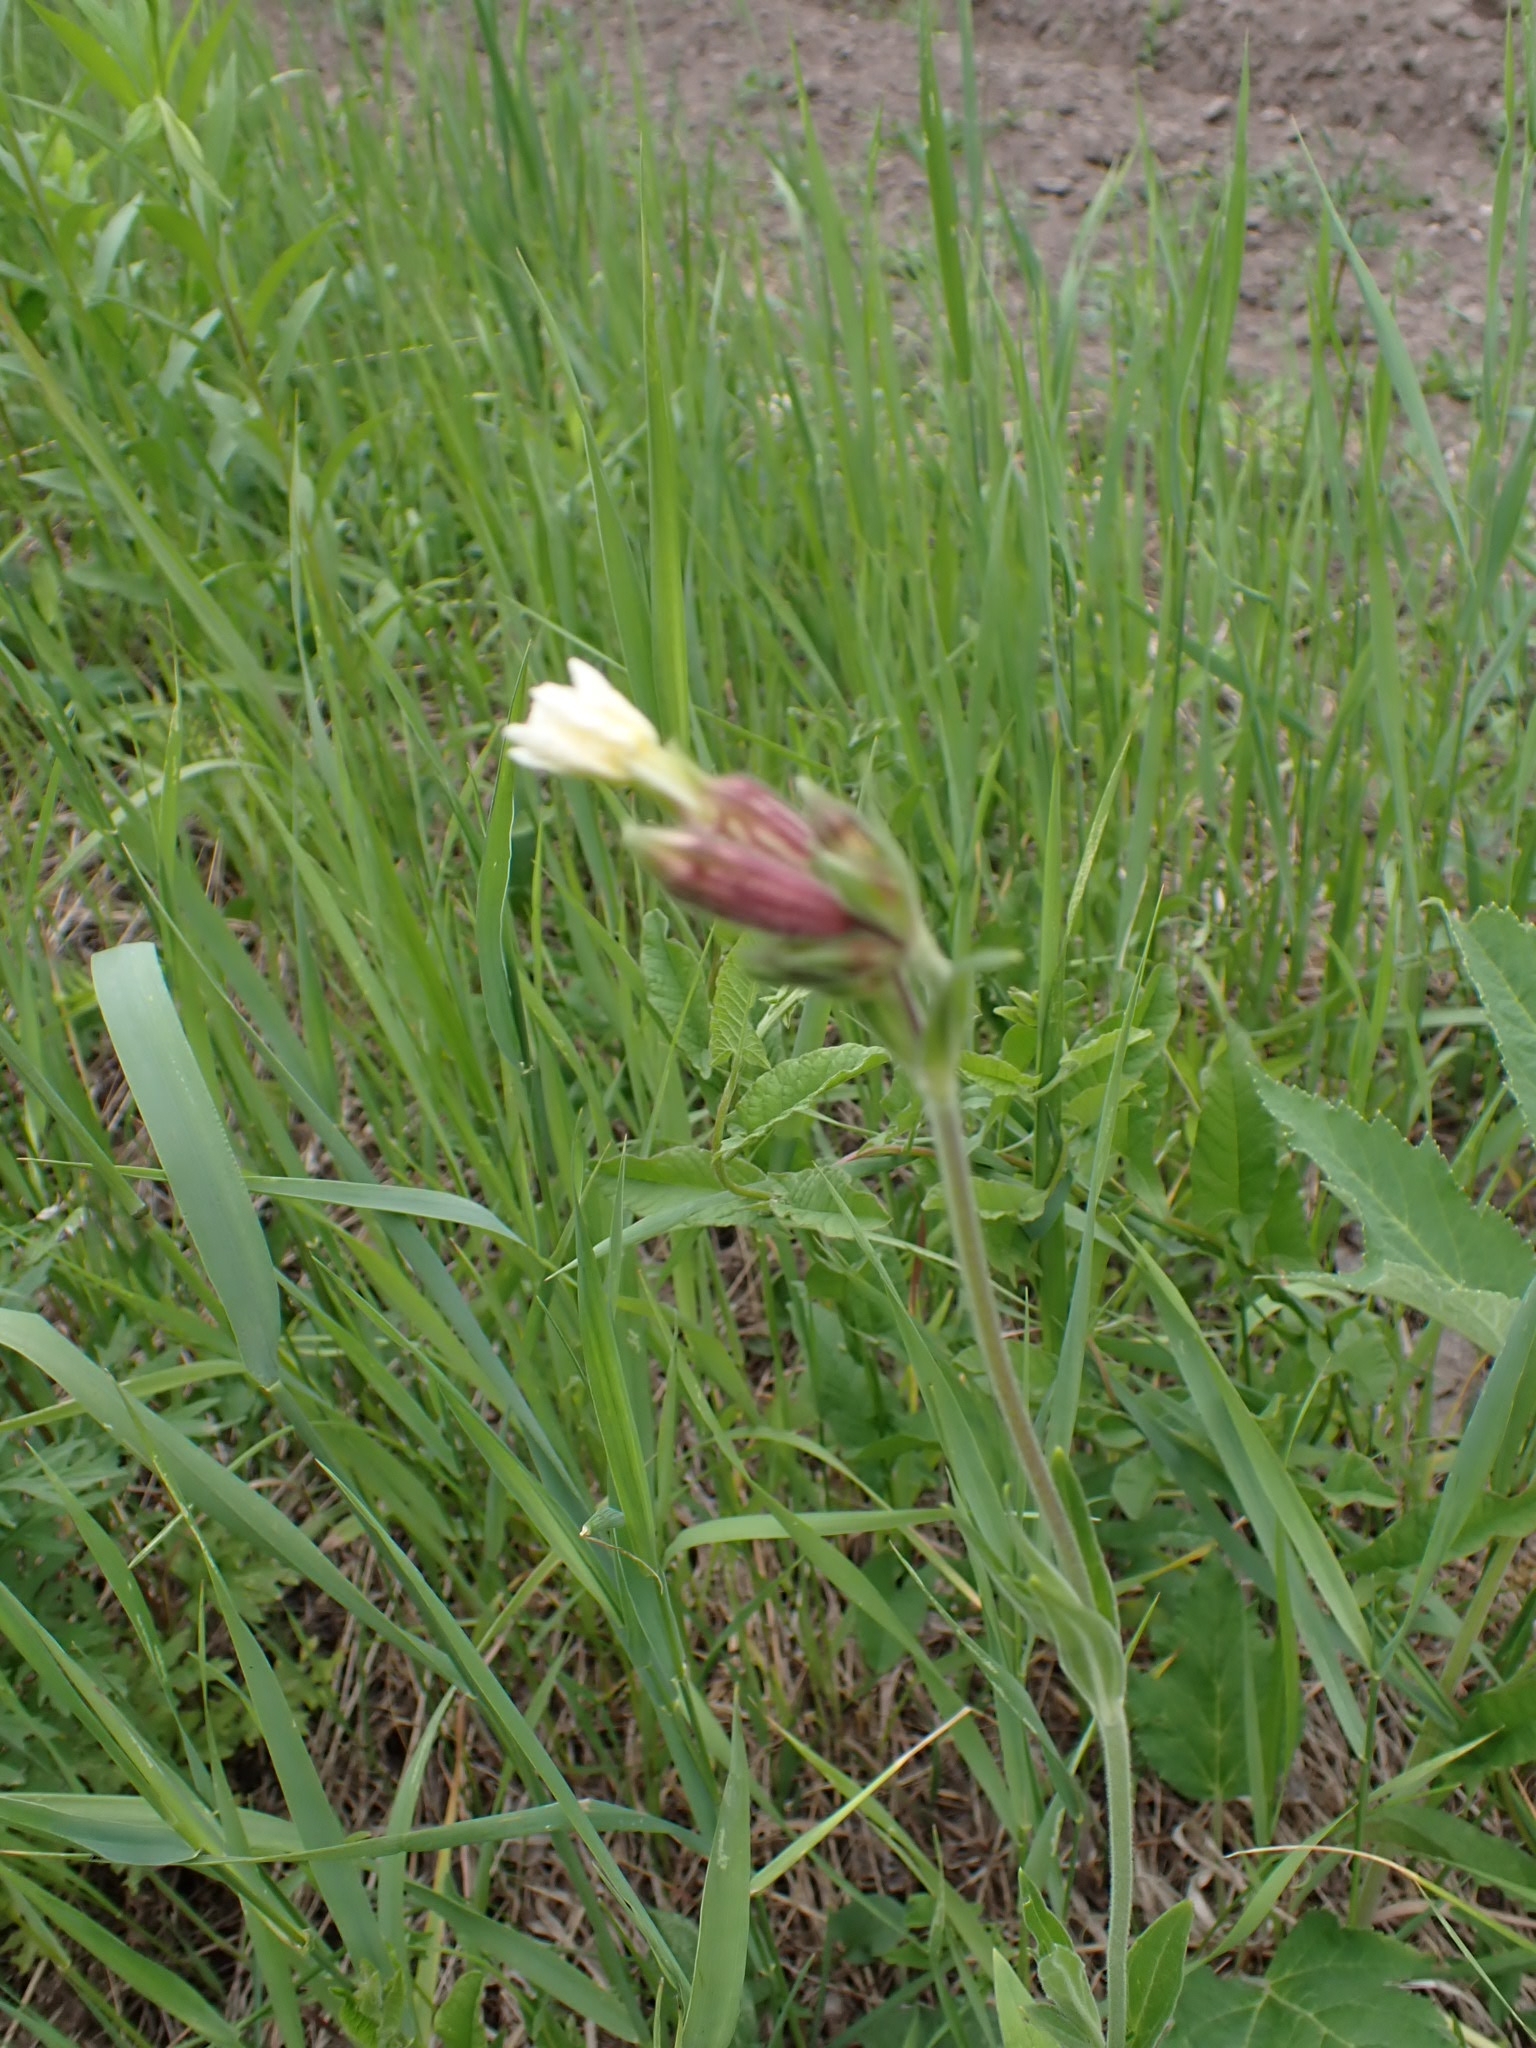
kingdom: Plantae
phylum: Tracheophyta
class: Magnoliopsida
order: Caryophyllales
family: Caryophyllaceae
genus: Silene
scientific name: Silene latifolia
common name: White campion
